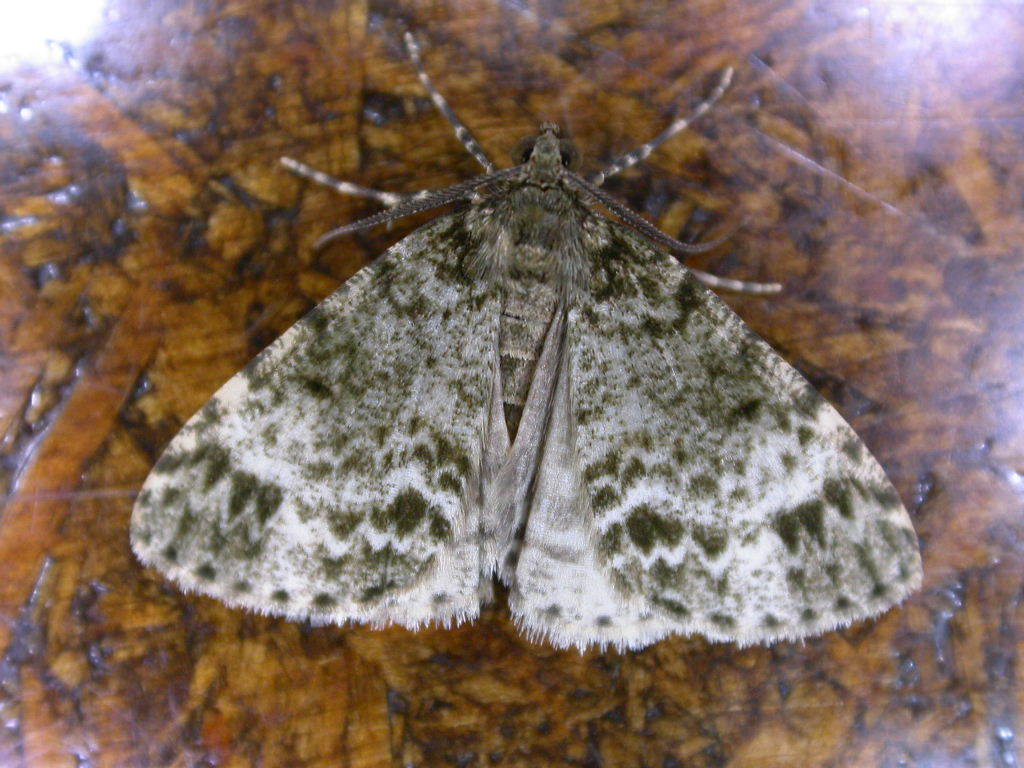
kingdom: Animalia
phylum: Arthropoda
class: Insecta
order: Lepidoptera
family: Geometridae
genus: Pseudocoremia
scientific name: Pseudocoremia indistincta
